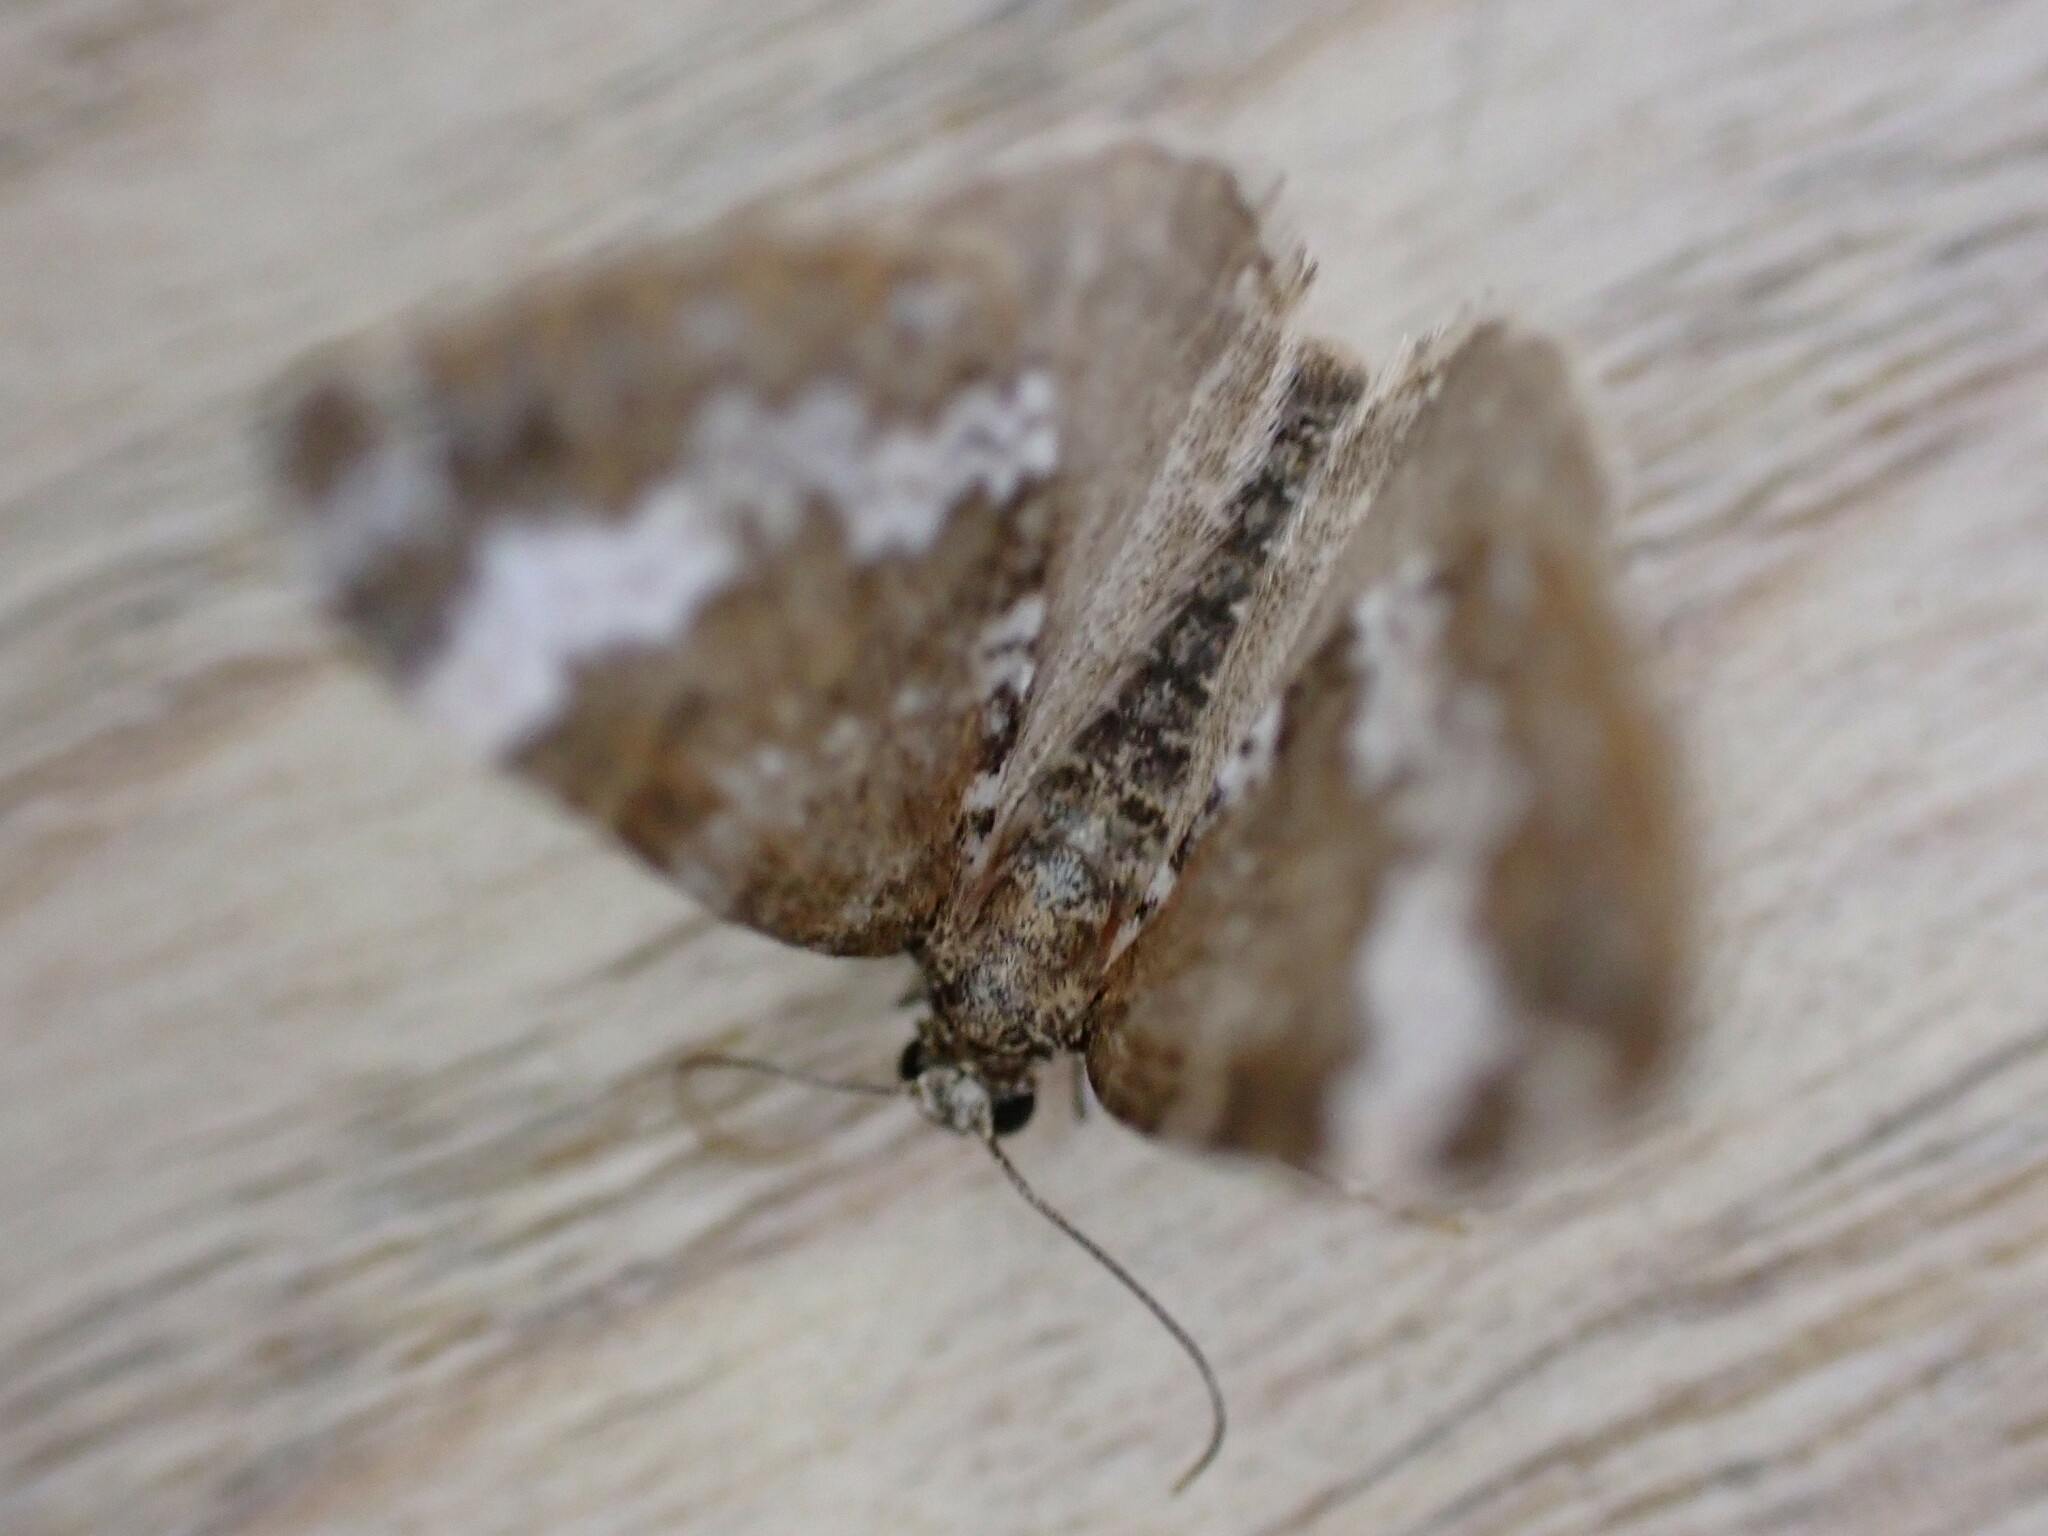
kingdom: Animalia
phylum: Arthropoda
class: Insecta
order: Lepidoptera
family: Geometridae
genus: Perizoma
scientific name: Perizoma alchemillata
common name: Small rivulet
